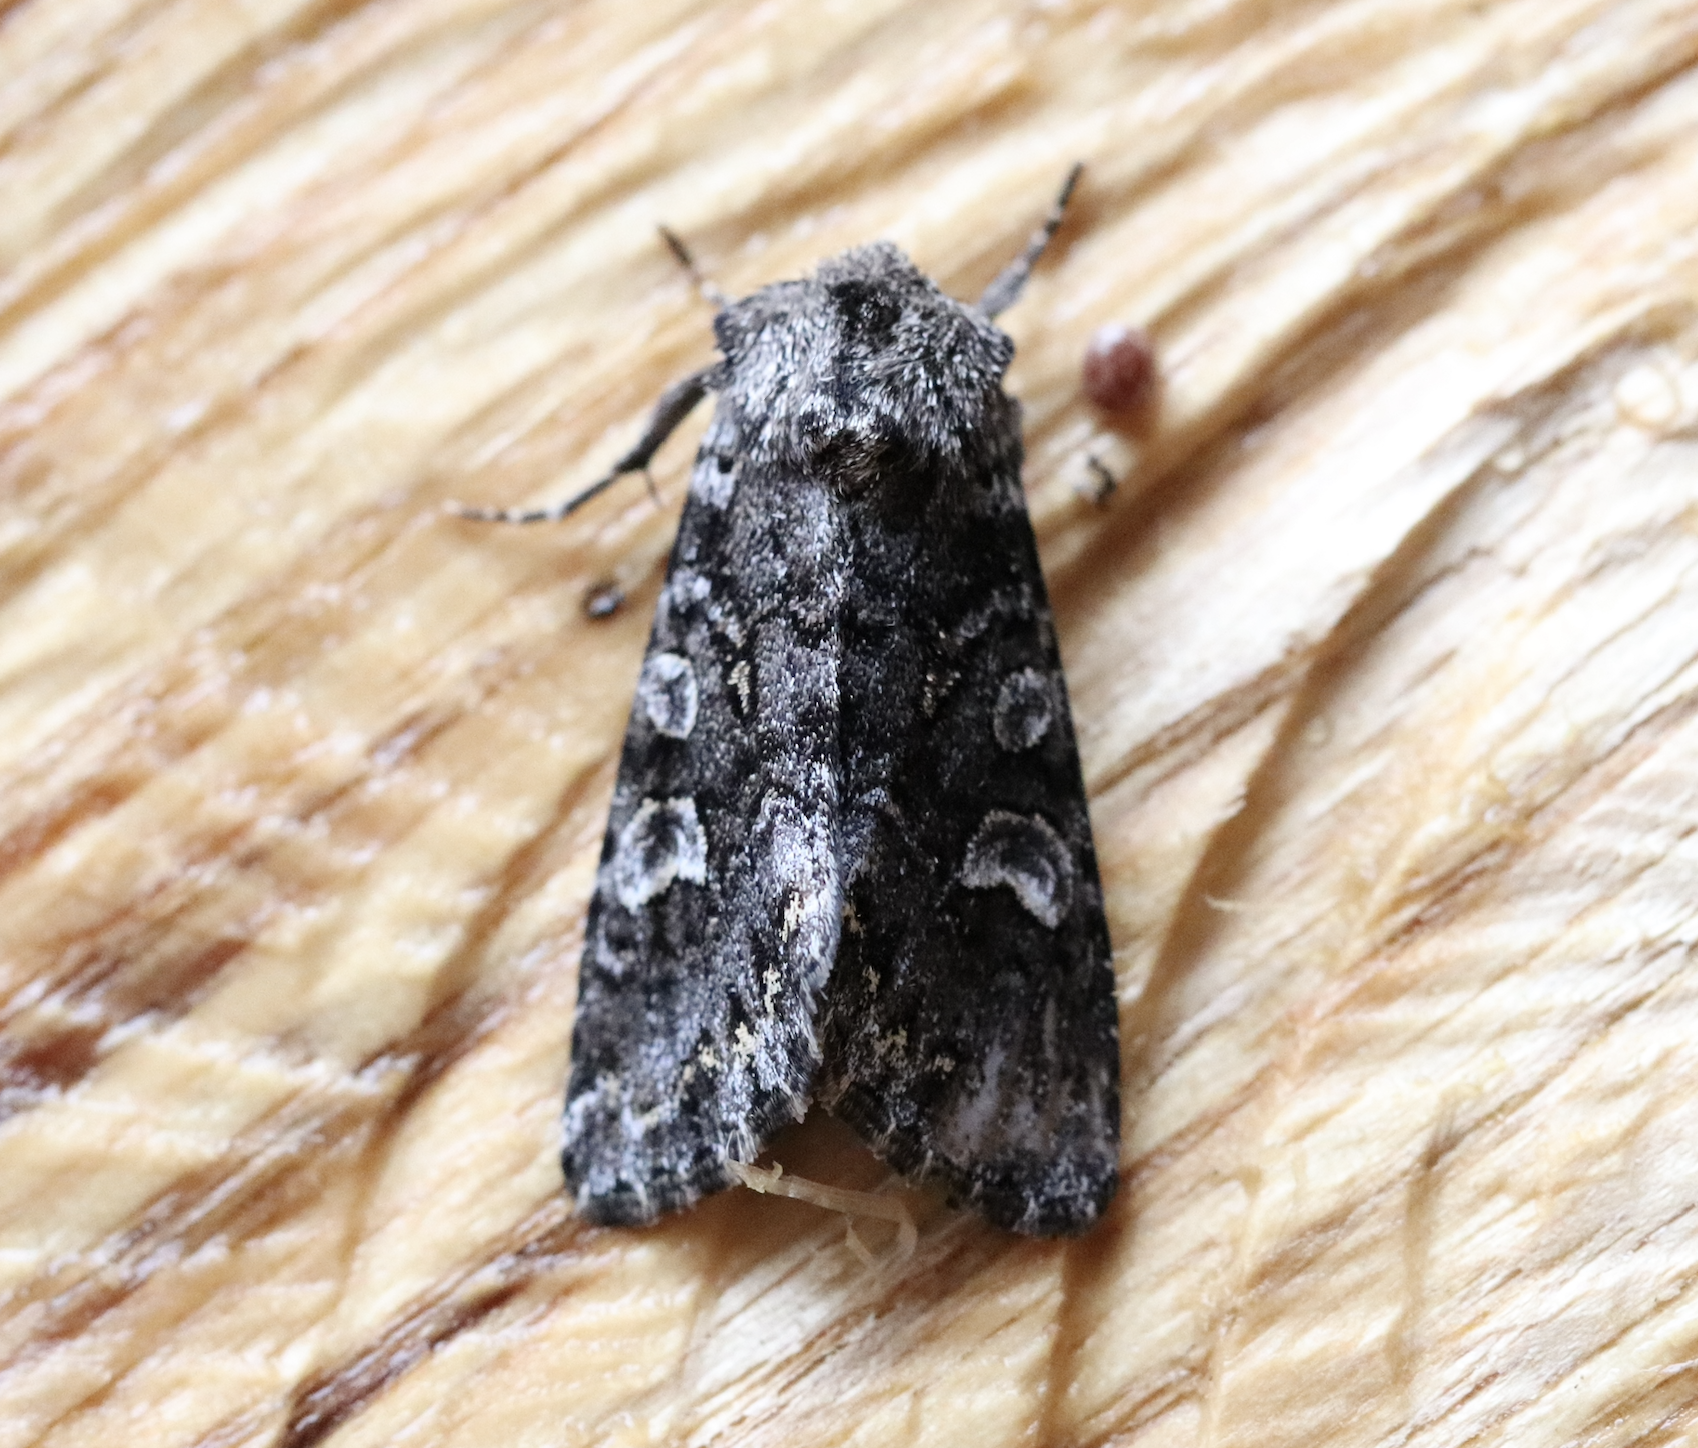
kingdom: Animalia
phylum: Arthropoda
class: Insecta
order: Lepidoptera
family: Noctuidae
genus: Papestra
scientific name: Papestra biren
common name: Glaucous shears
